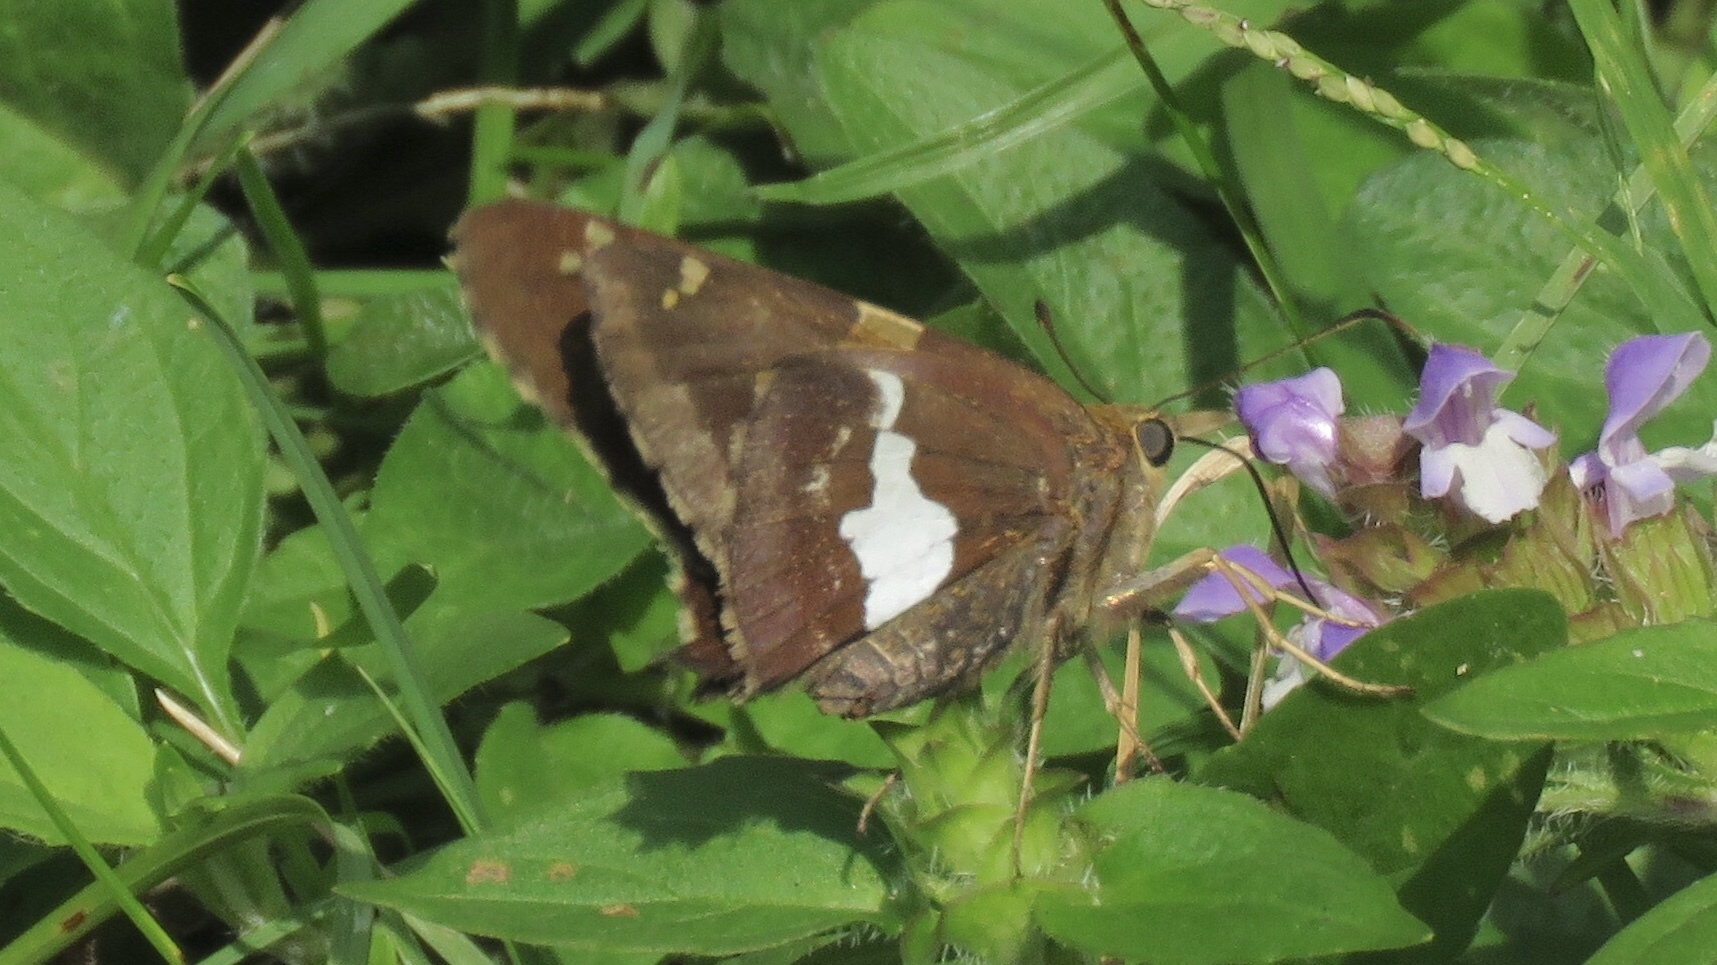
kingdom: Animalia
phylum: Arthropoda
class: Insecta
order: Lepidoptera
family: Hesperiidae
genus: Epargyreus
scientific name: Epargyreus clarus
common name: Silver-spotted skipper
